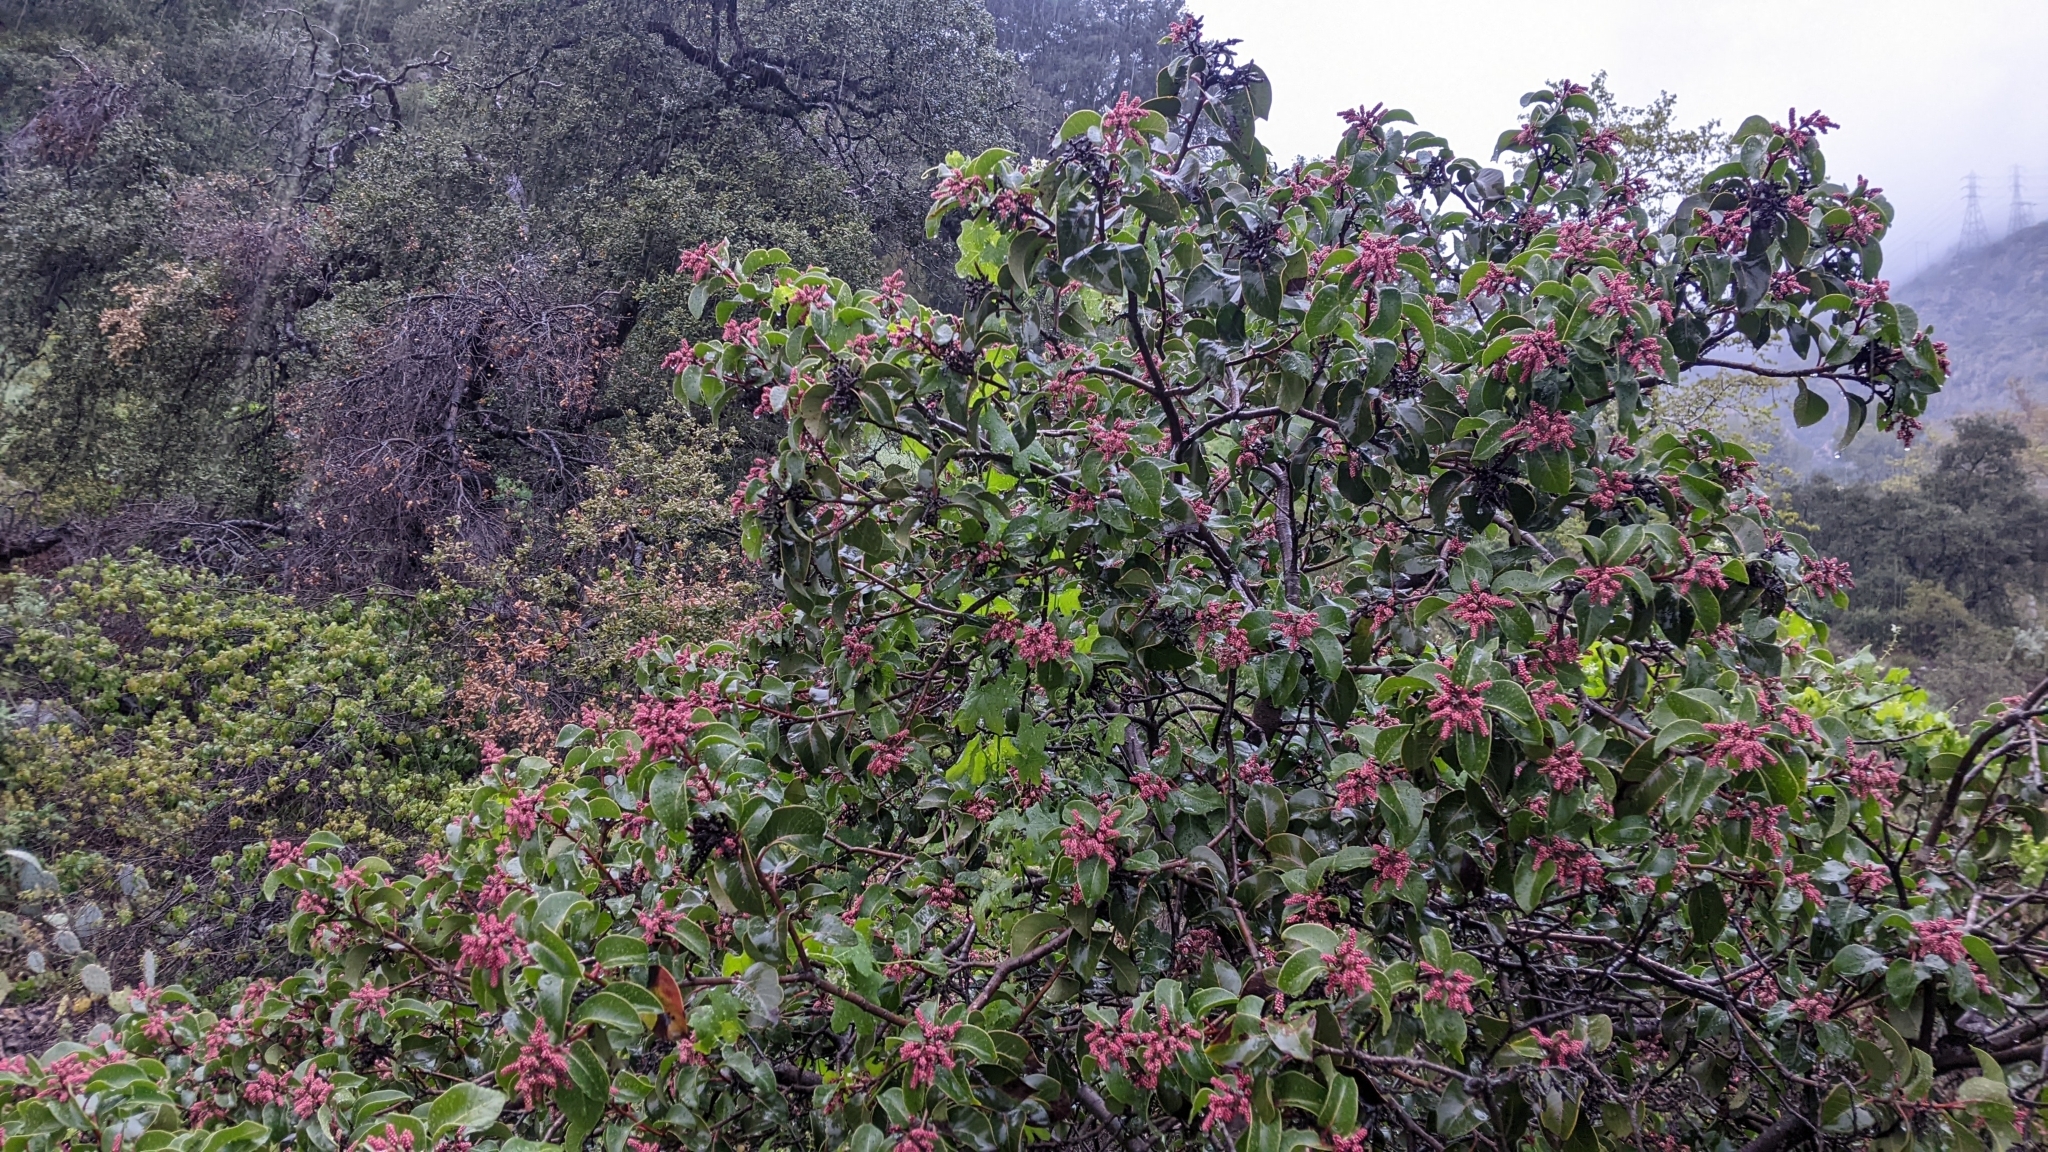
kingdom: Plantae
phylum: Tracheophyta
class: Magnoliopsida
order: Sapindales
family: Anacardiaceae
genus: Rhus
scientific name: Rhus ovata
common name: Sugar sumac
